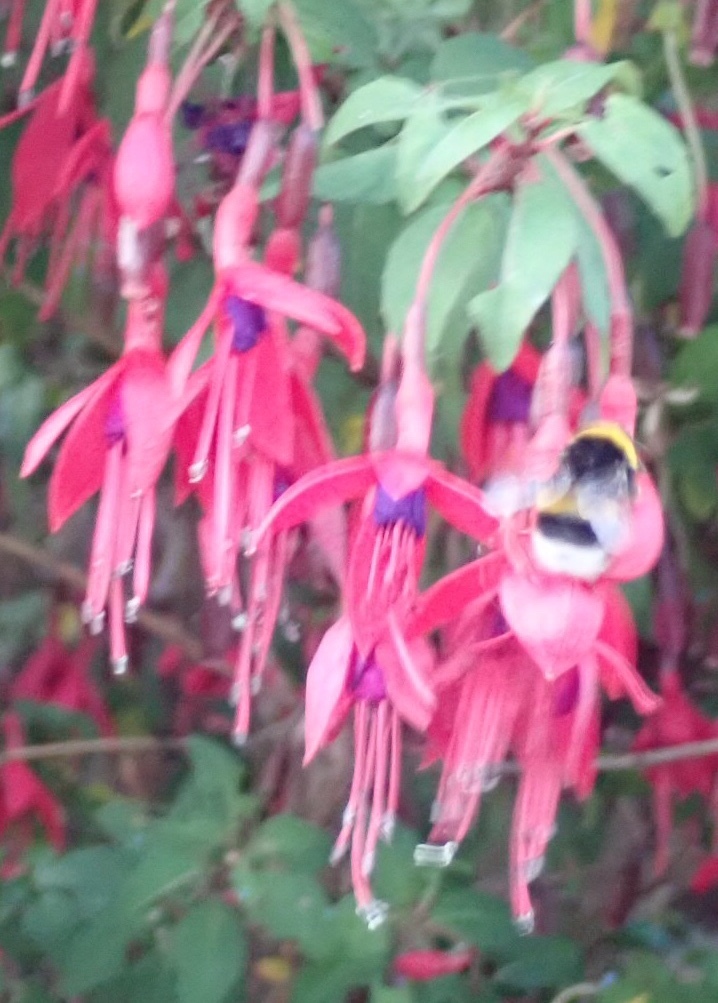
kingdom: Animalia
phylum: Arthropoda
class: Insecta
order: Hymenoptera
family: Apidae
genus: Bombus
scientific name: Bombus terrestris
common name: Buff-tailed bumblebee
